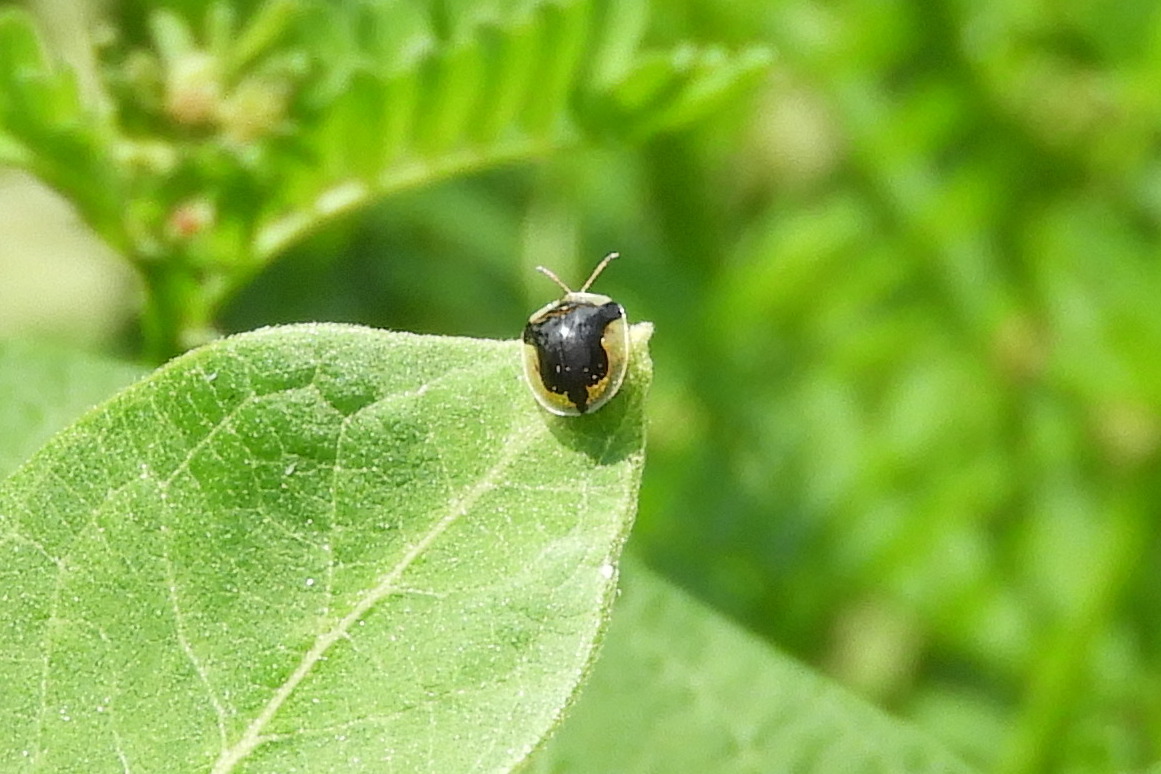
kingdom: Animalia
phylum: Arthropoda
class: Insecta
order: Coleoptera
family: Chrysomelidae
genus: Deloyala
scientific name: Deloyala guttata
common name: Mottled tortoise beetle
